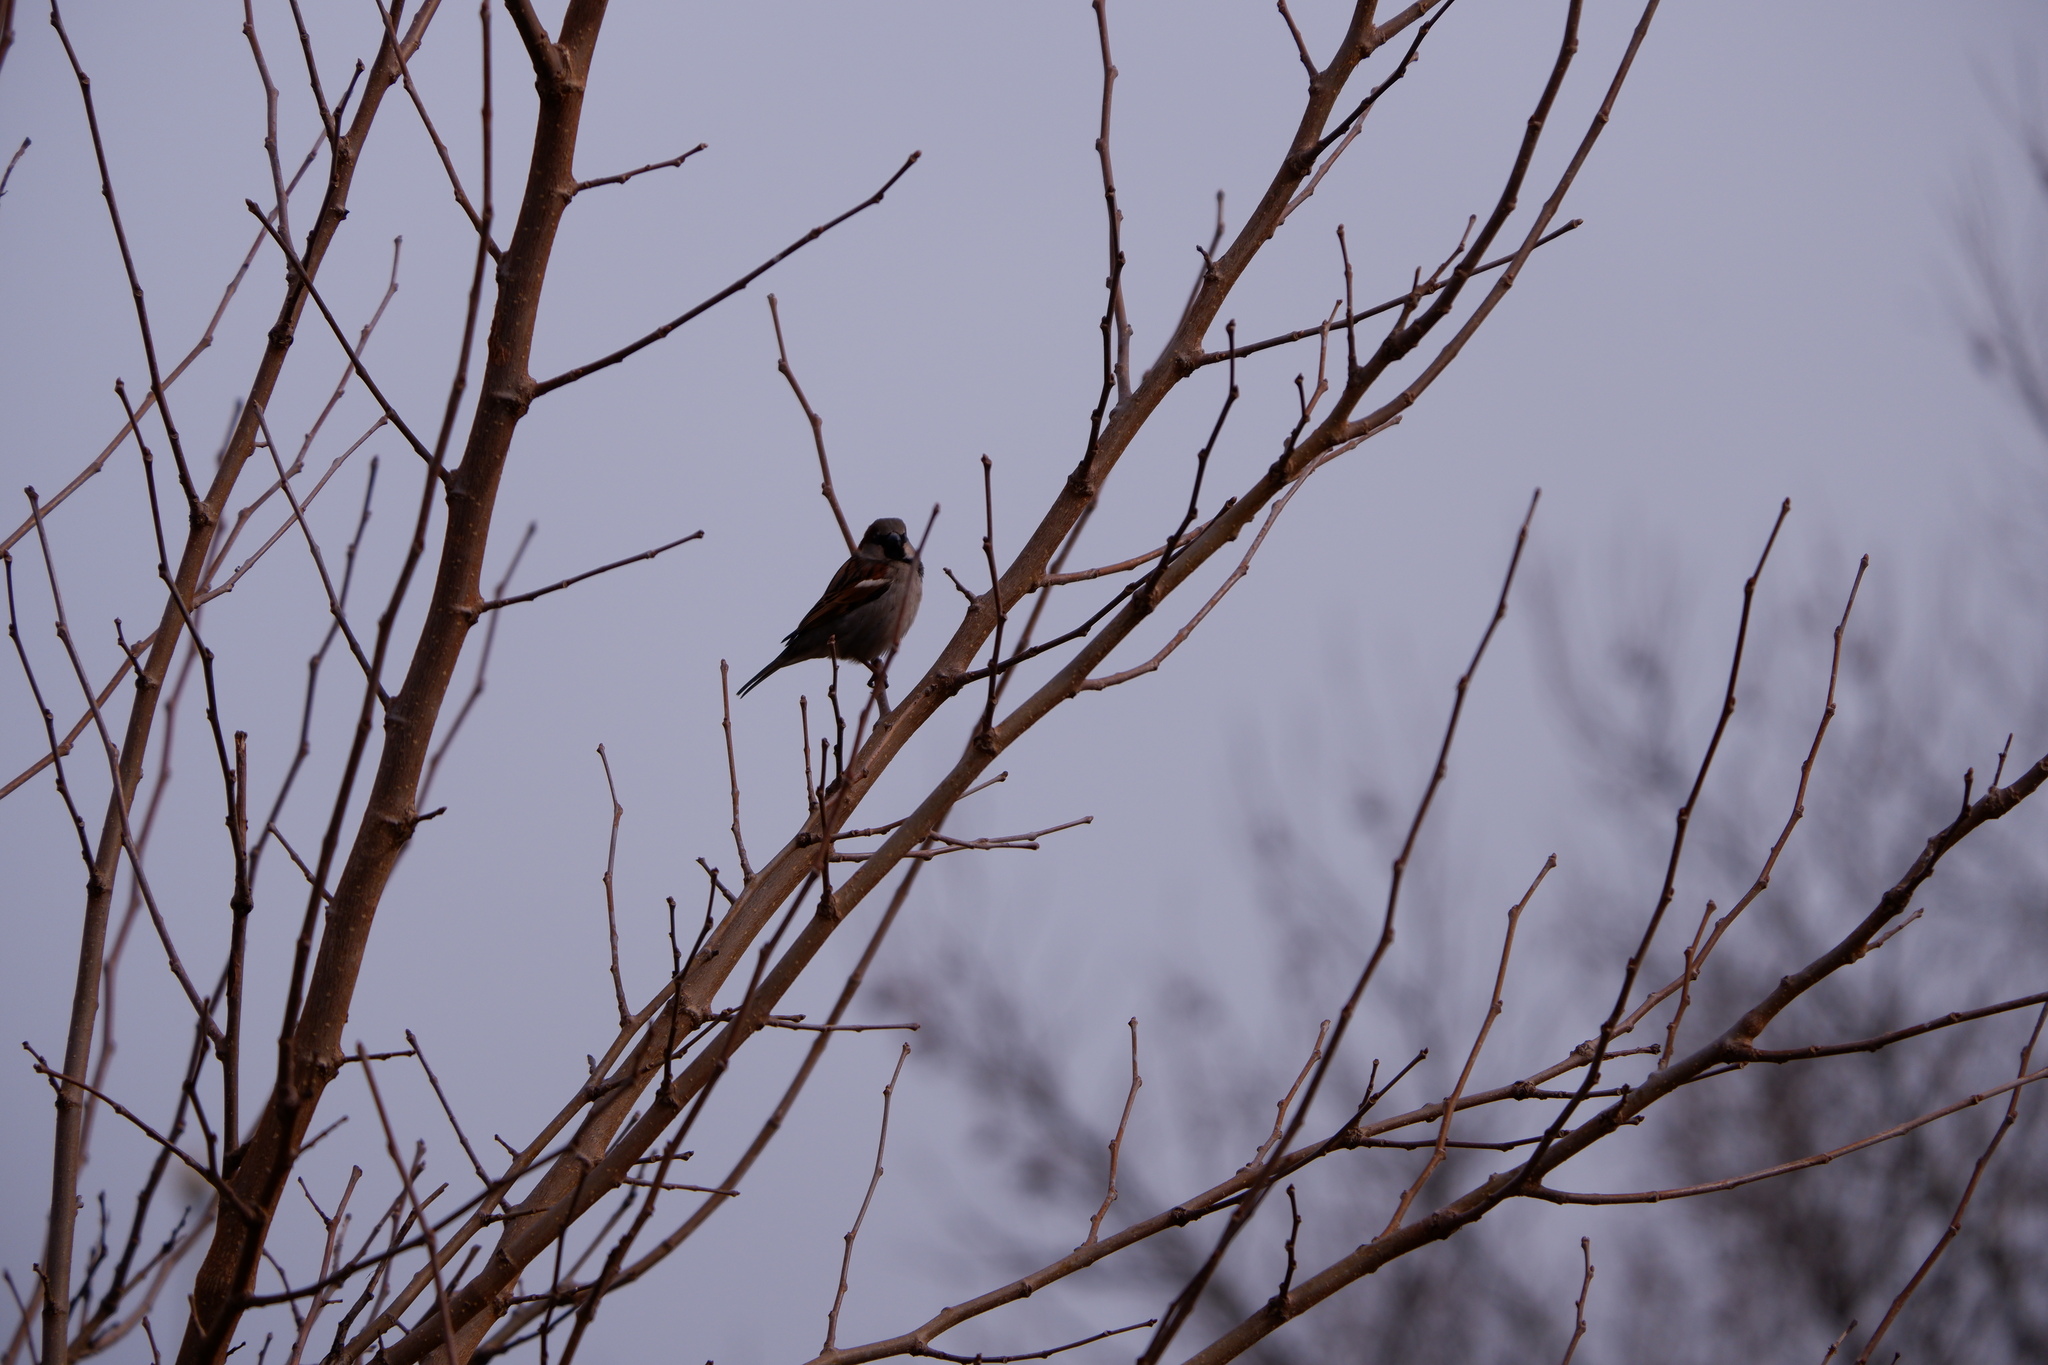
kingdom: Animalia
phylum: Chordata
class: Aves
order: Passeriformes
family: Passeridae
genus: Passer
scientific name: Passer domesticus
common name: House sparrow
